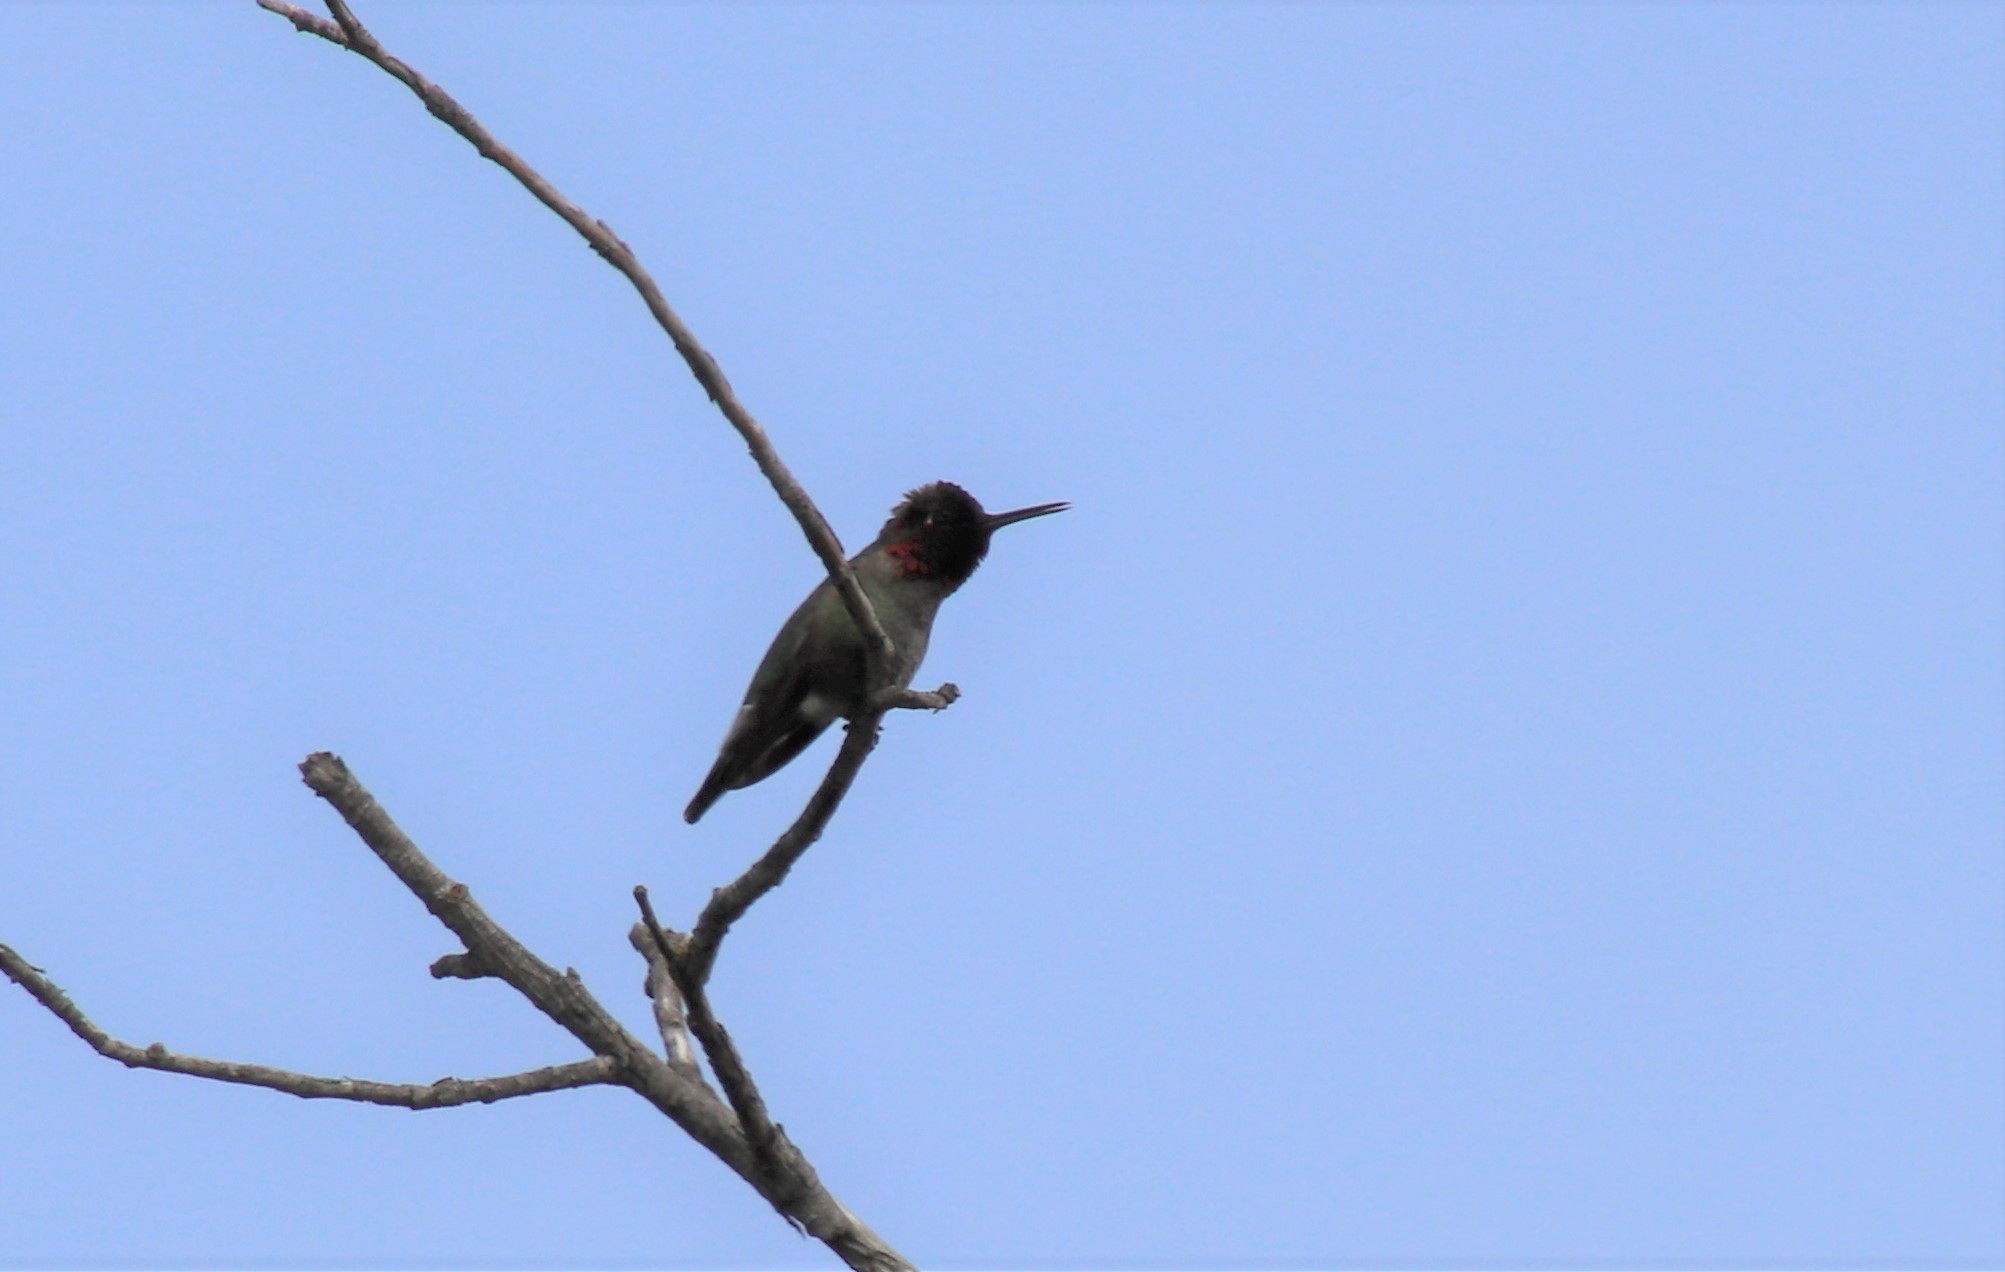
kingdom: Animalia
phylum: Chordata
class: Aves
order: Apodiformes
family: Trochilidae
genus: Calypte
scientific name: Calypte anna
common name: Anna's hummingbird
